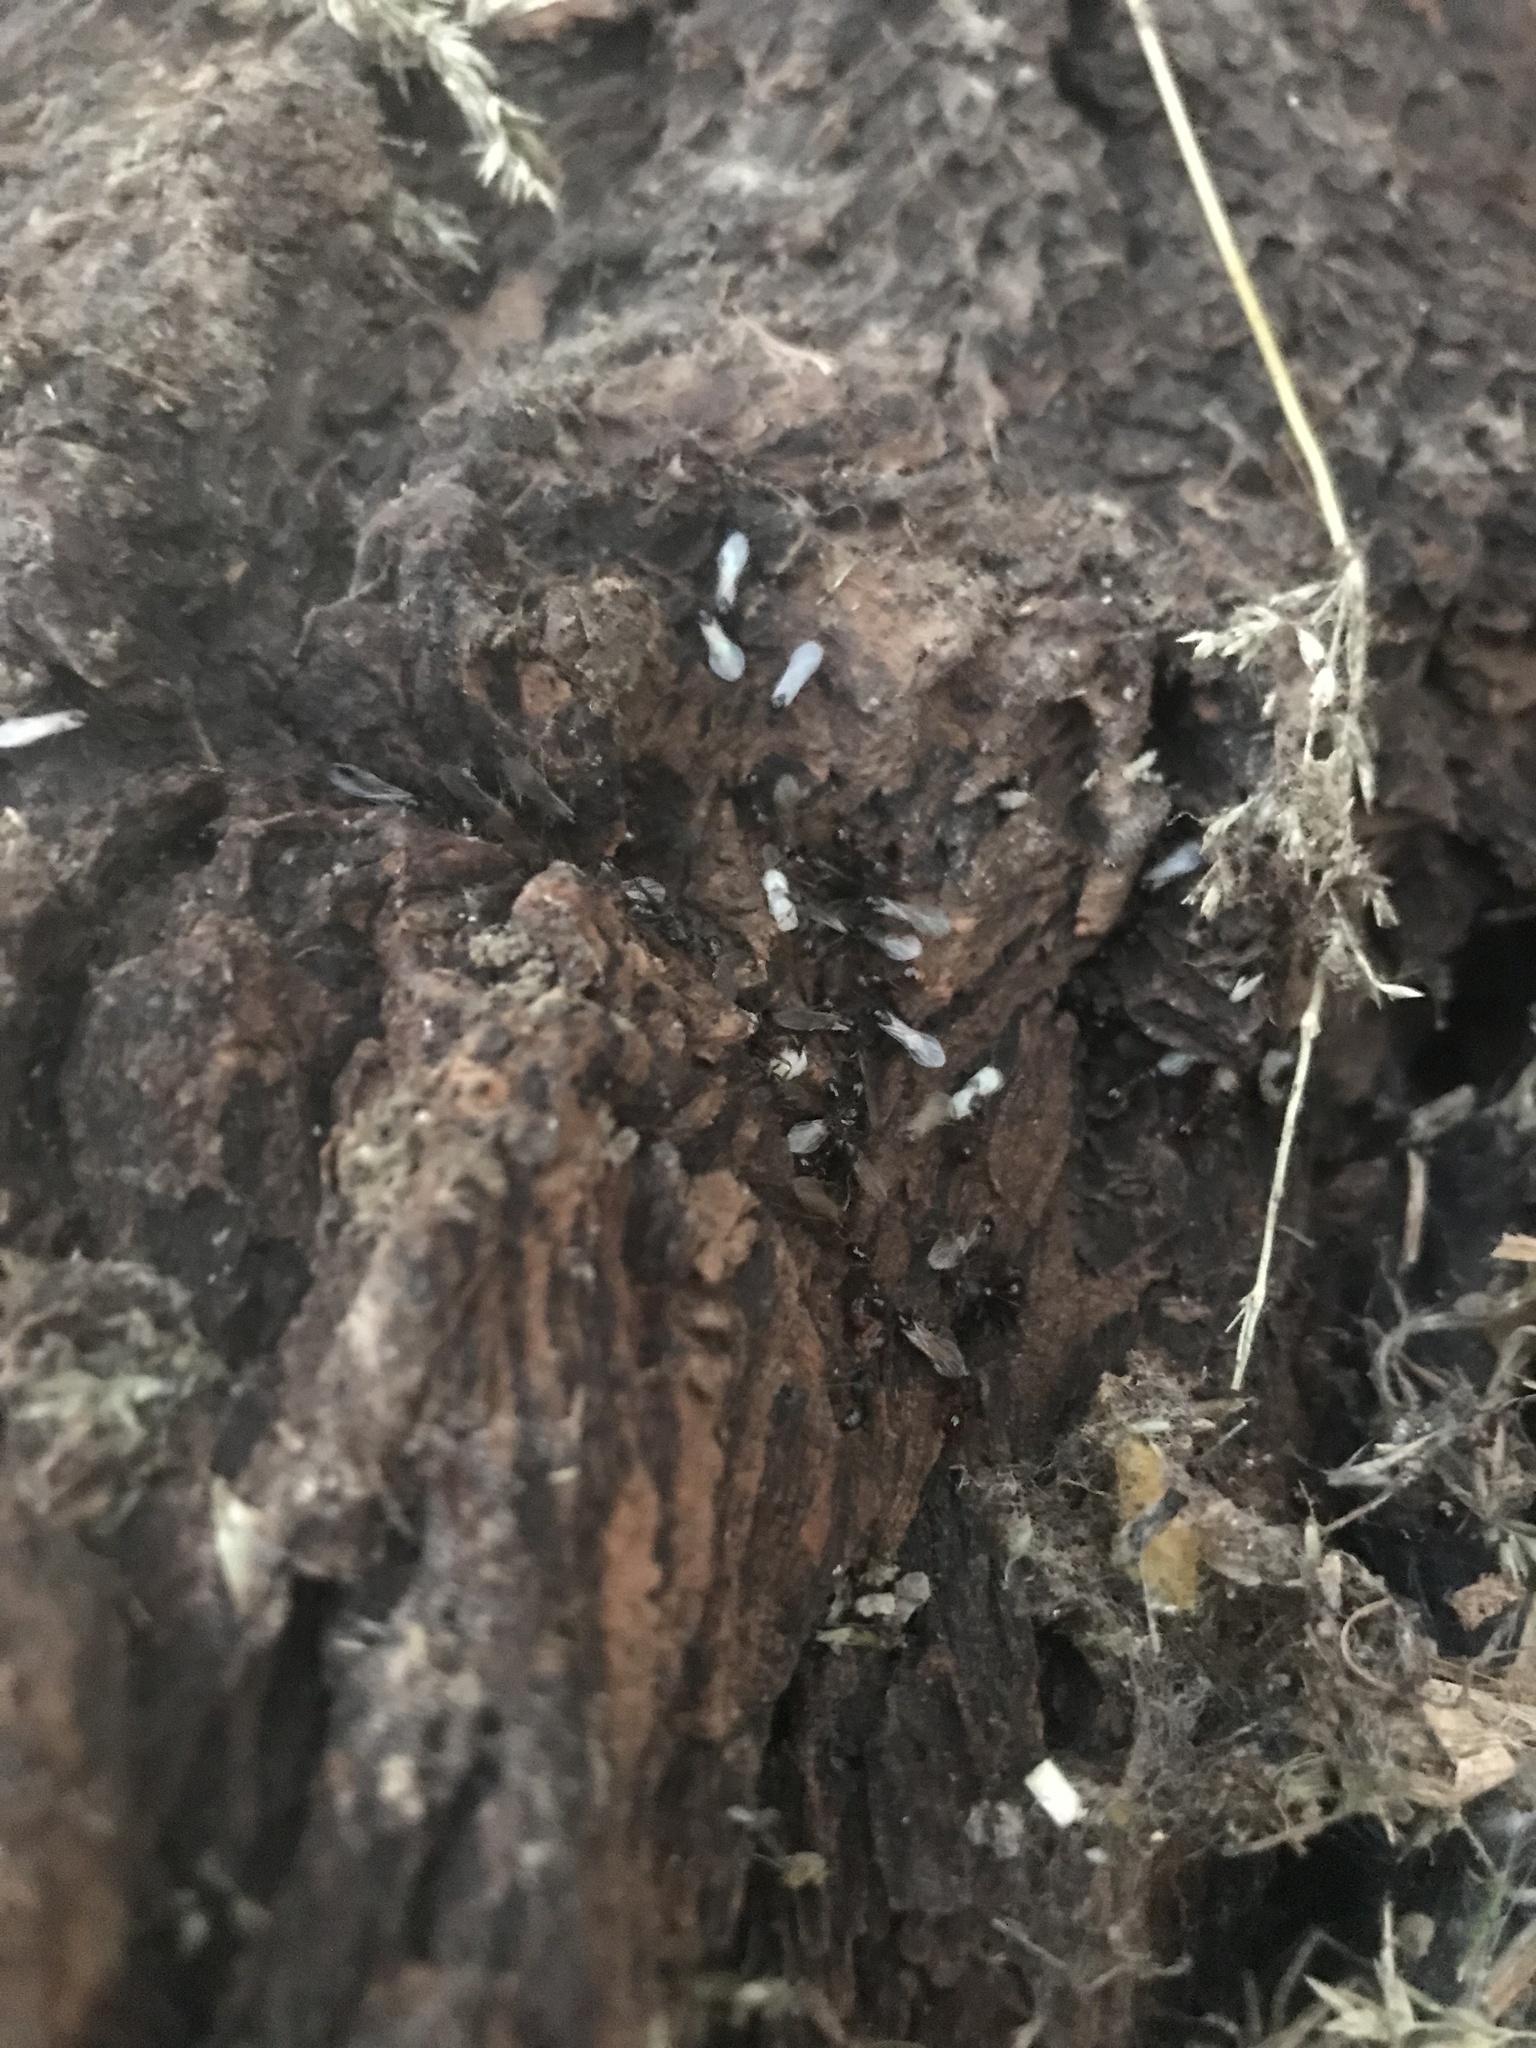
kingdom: Animalia
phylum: Arthropoda
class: Insecta
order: Hymenoptera
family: Formicidae
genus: Aphaenogaster
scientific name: Aphaenogaster occidentalis
